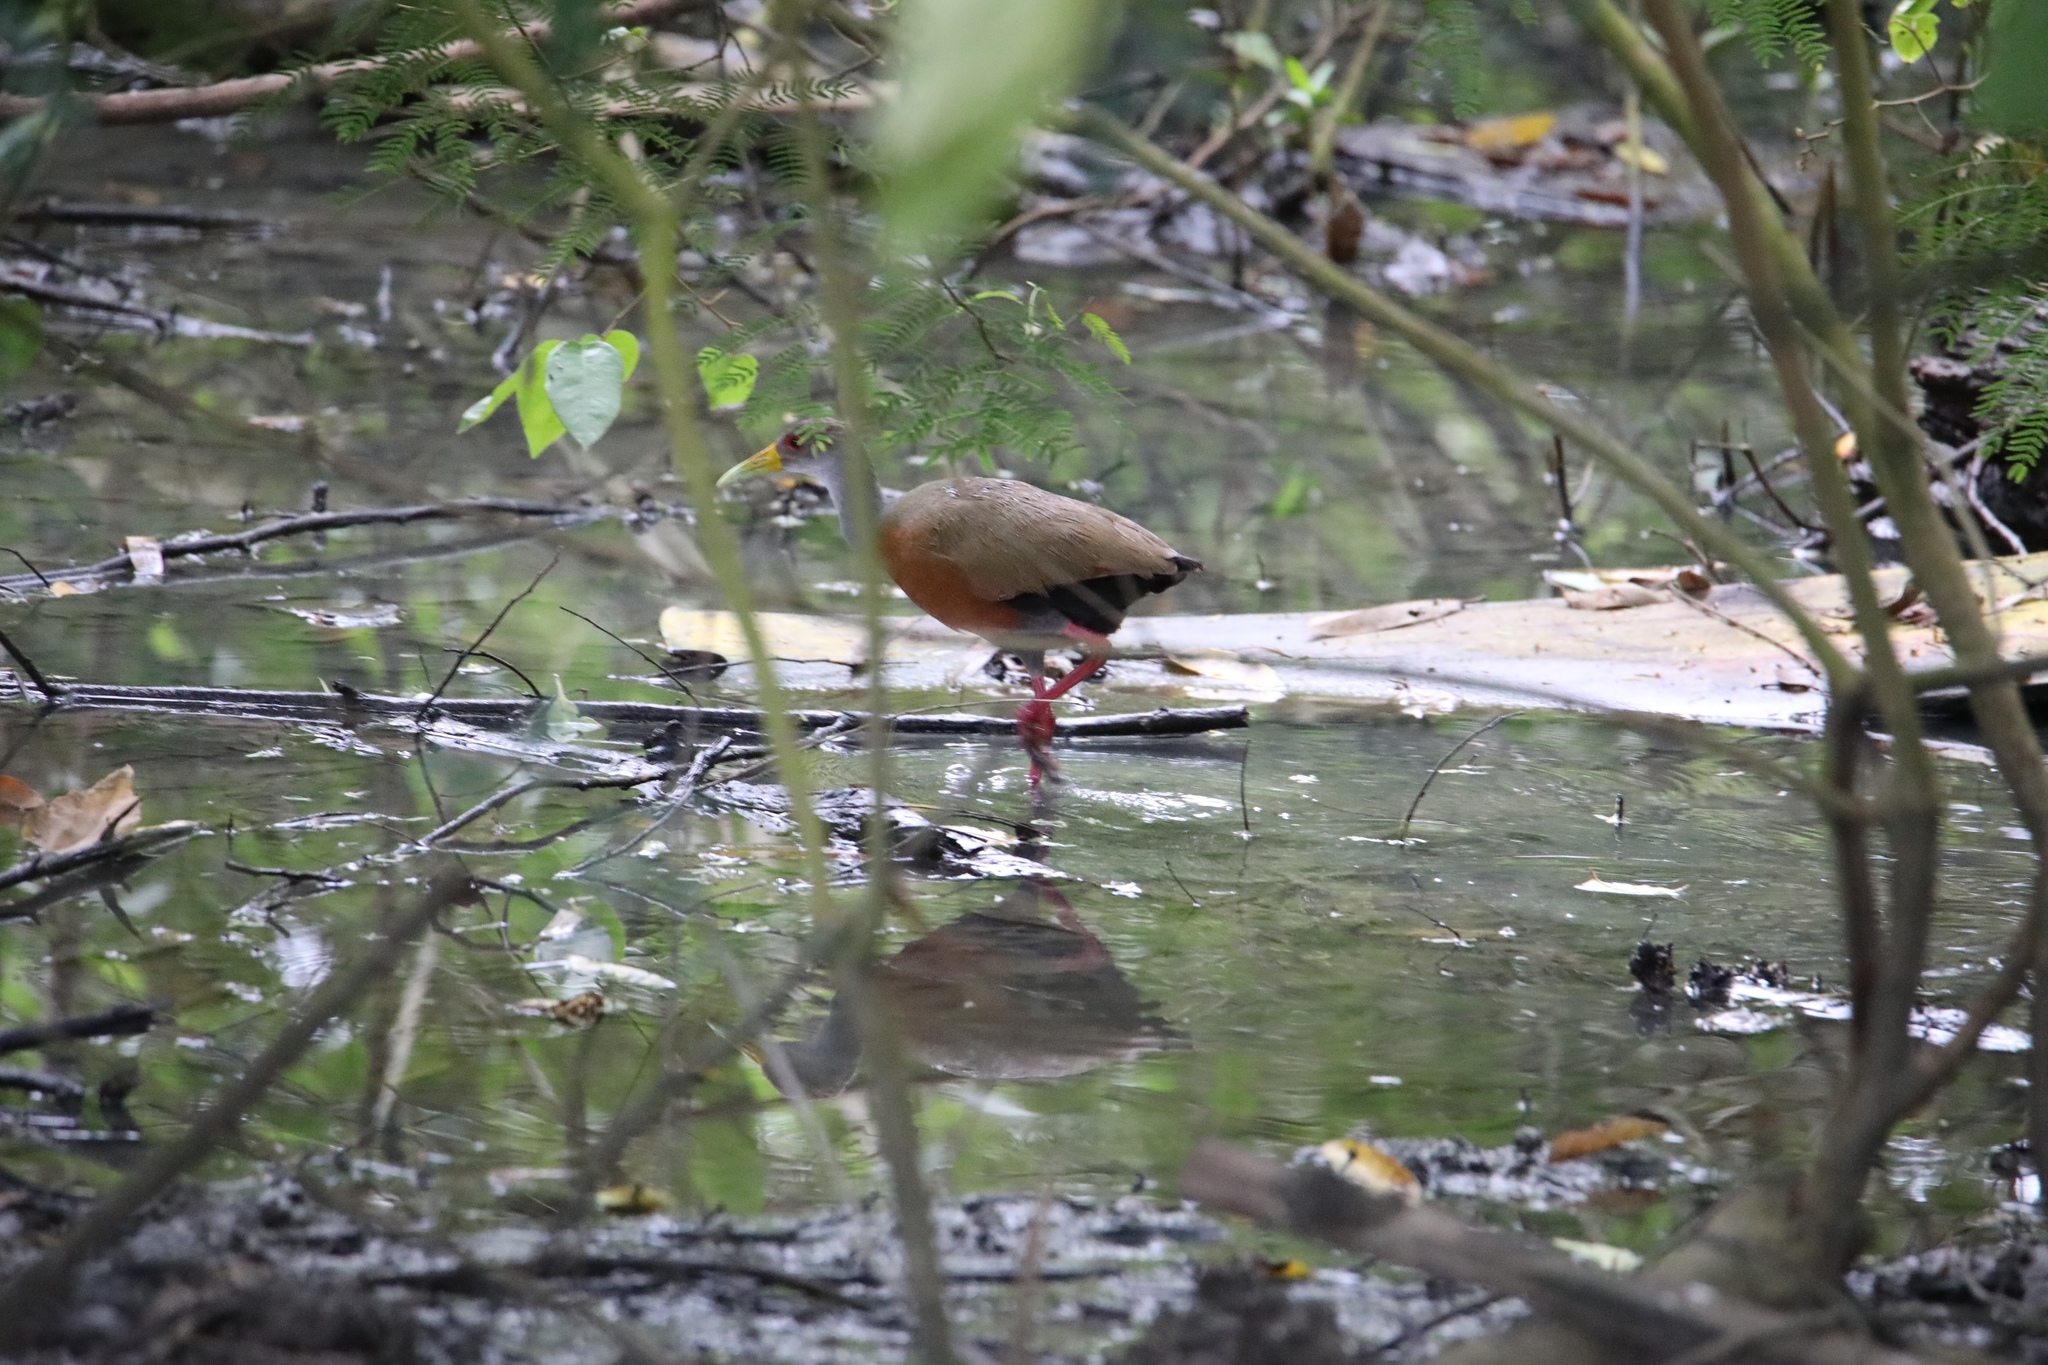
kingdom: Animalia
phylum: Chordata
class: Aves
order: Gruiformes
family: Rallidae
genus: Aramides
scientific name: Aramides cajanea
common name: Gray-necked wood-rail
